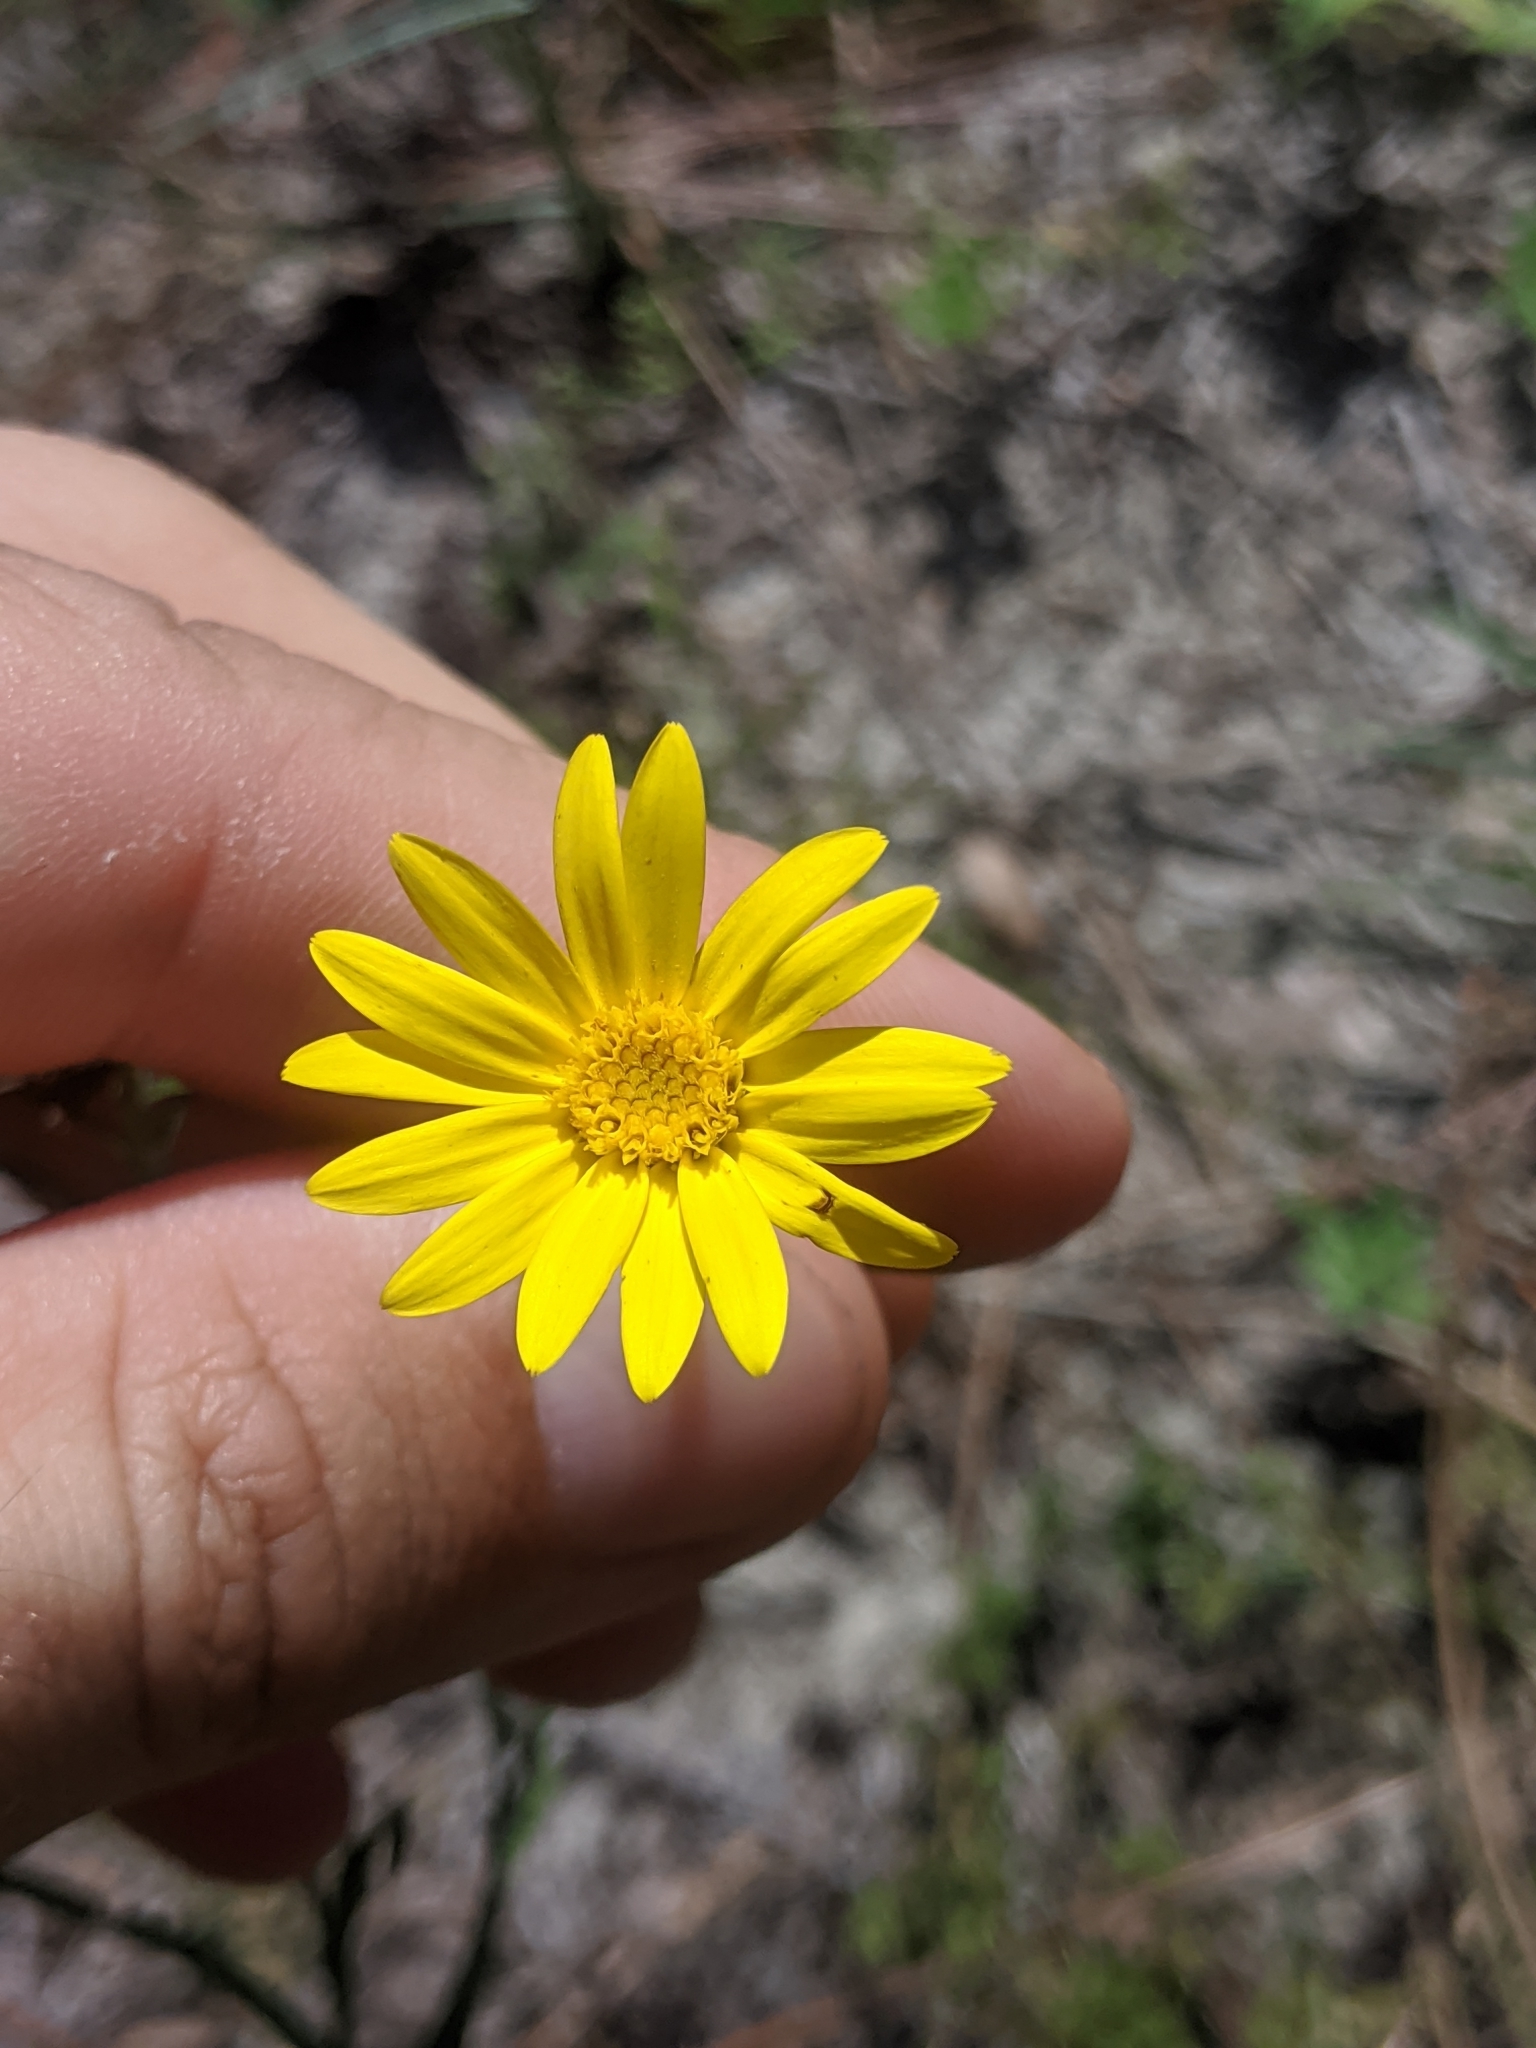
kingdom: Plantae
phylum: Tracheophyta
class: Magnoliopsida
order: Asterales
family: Asteraceae
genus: Pityopsis
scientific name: Pityopsis flexuosa
